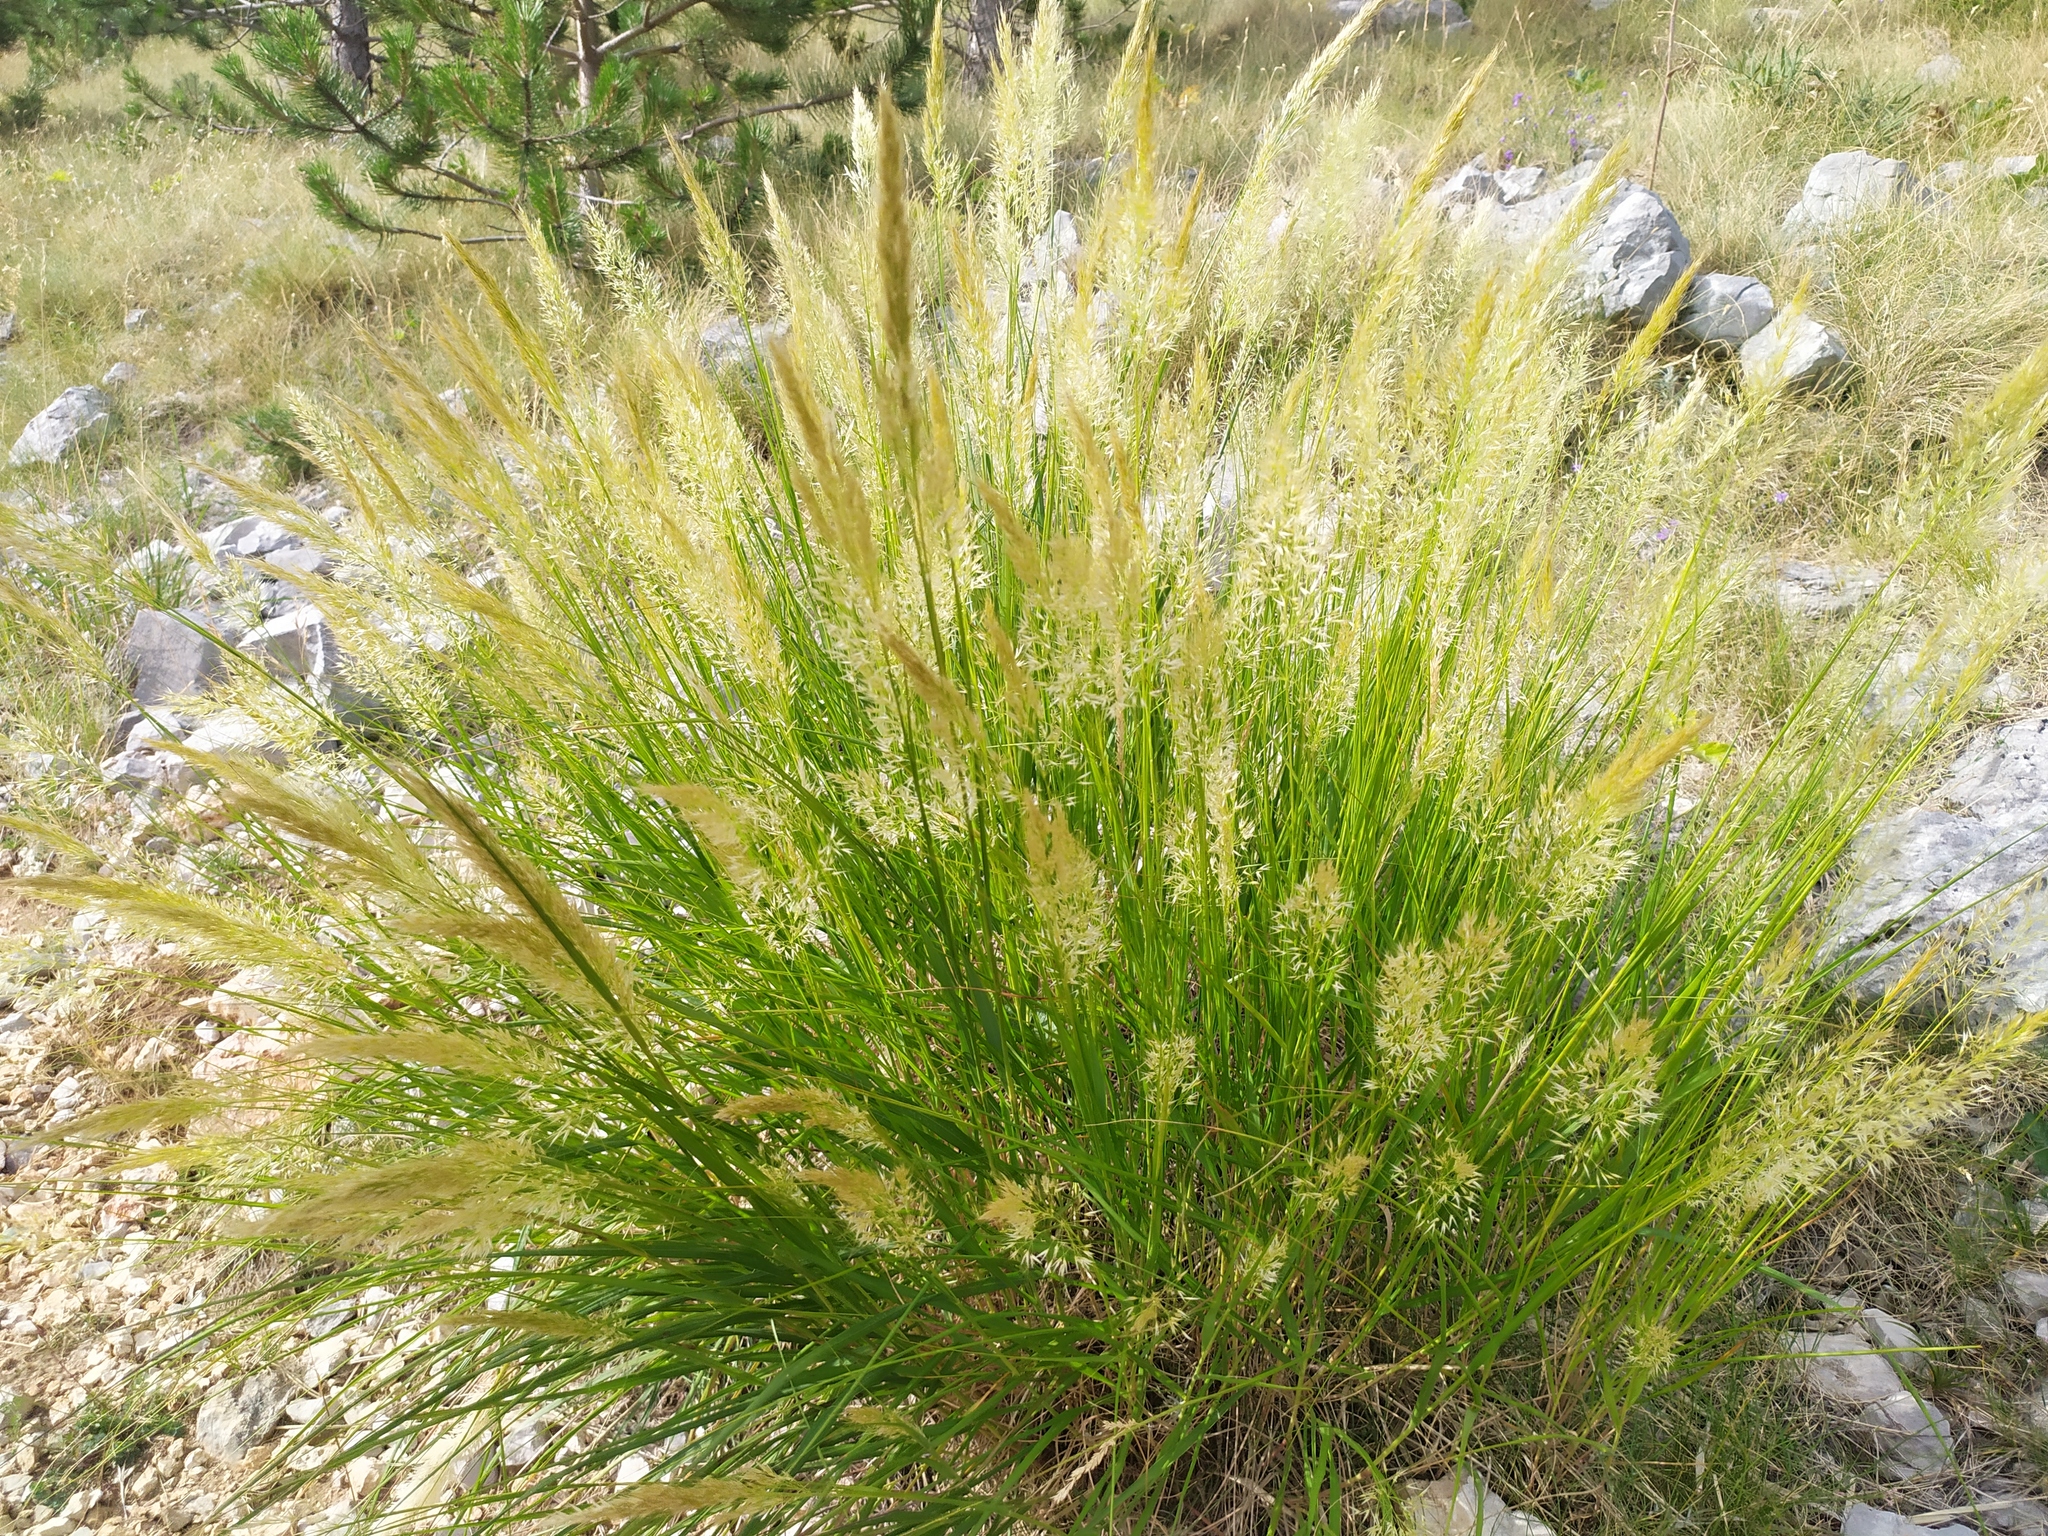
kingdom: Plantae
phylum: Tracheophyta
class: Liliopsida
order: Poales
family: Poaceae
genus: Achnatherum
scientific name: Achnatherum calamagrostis
